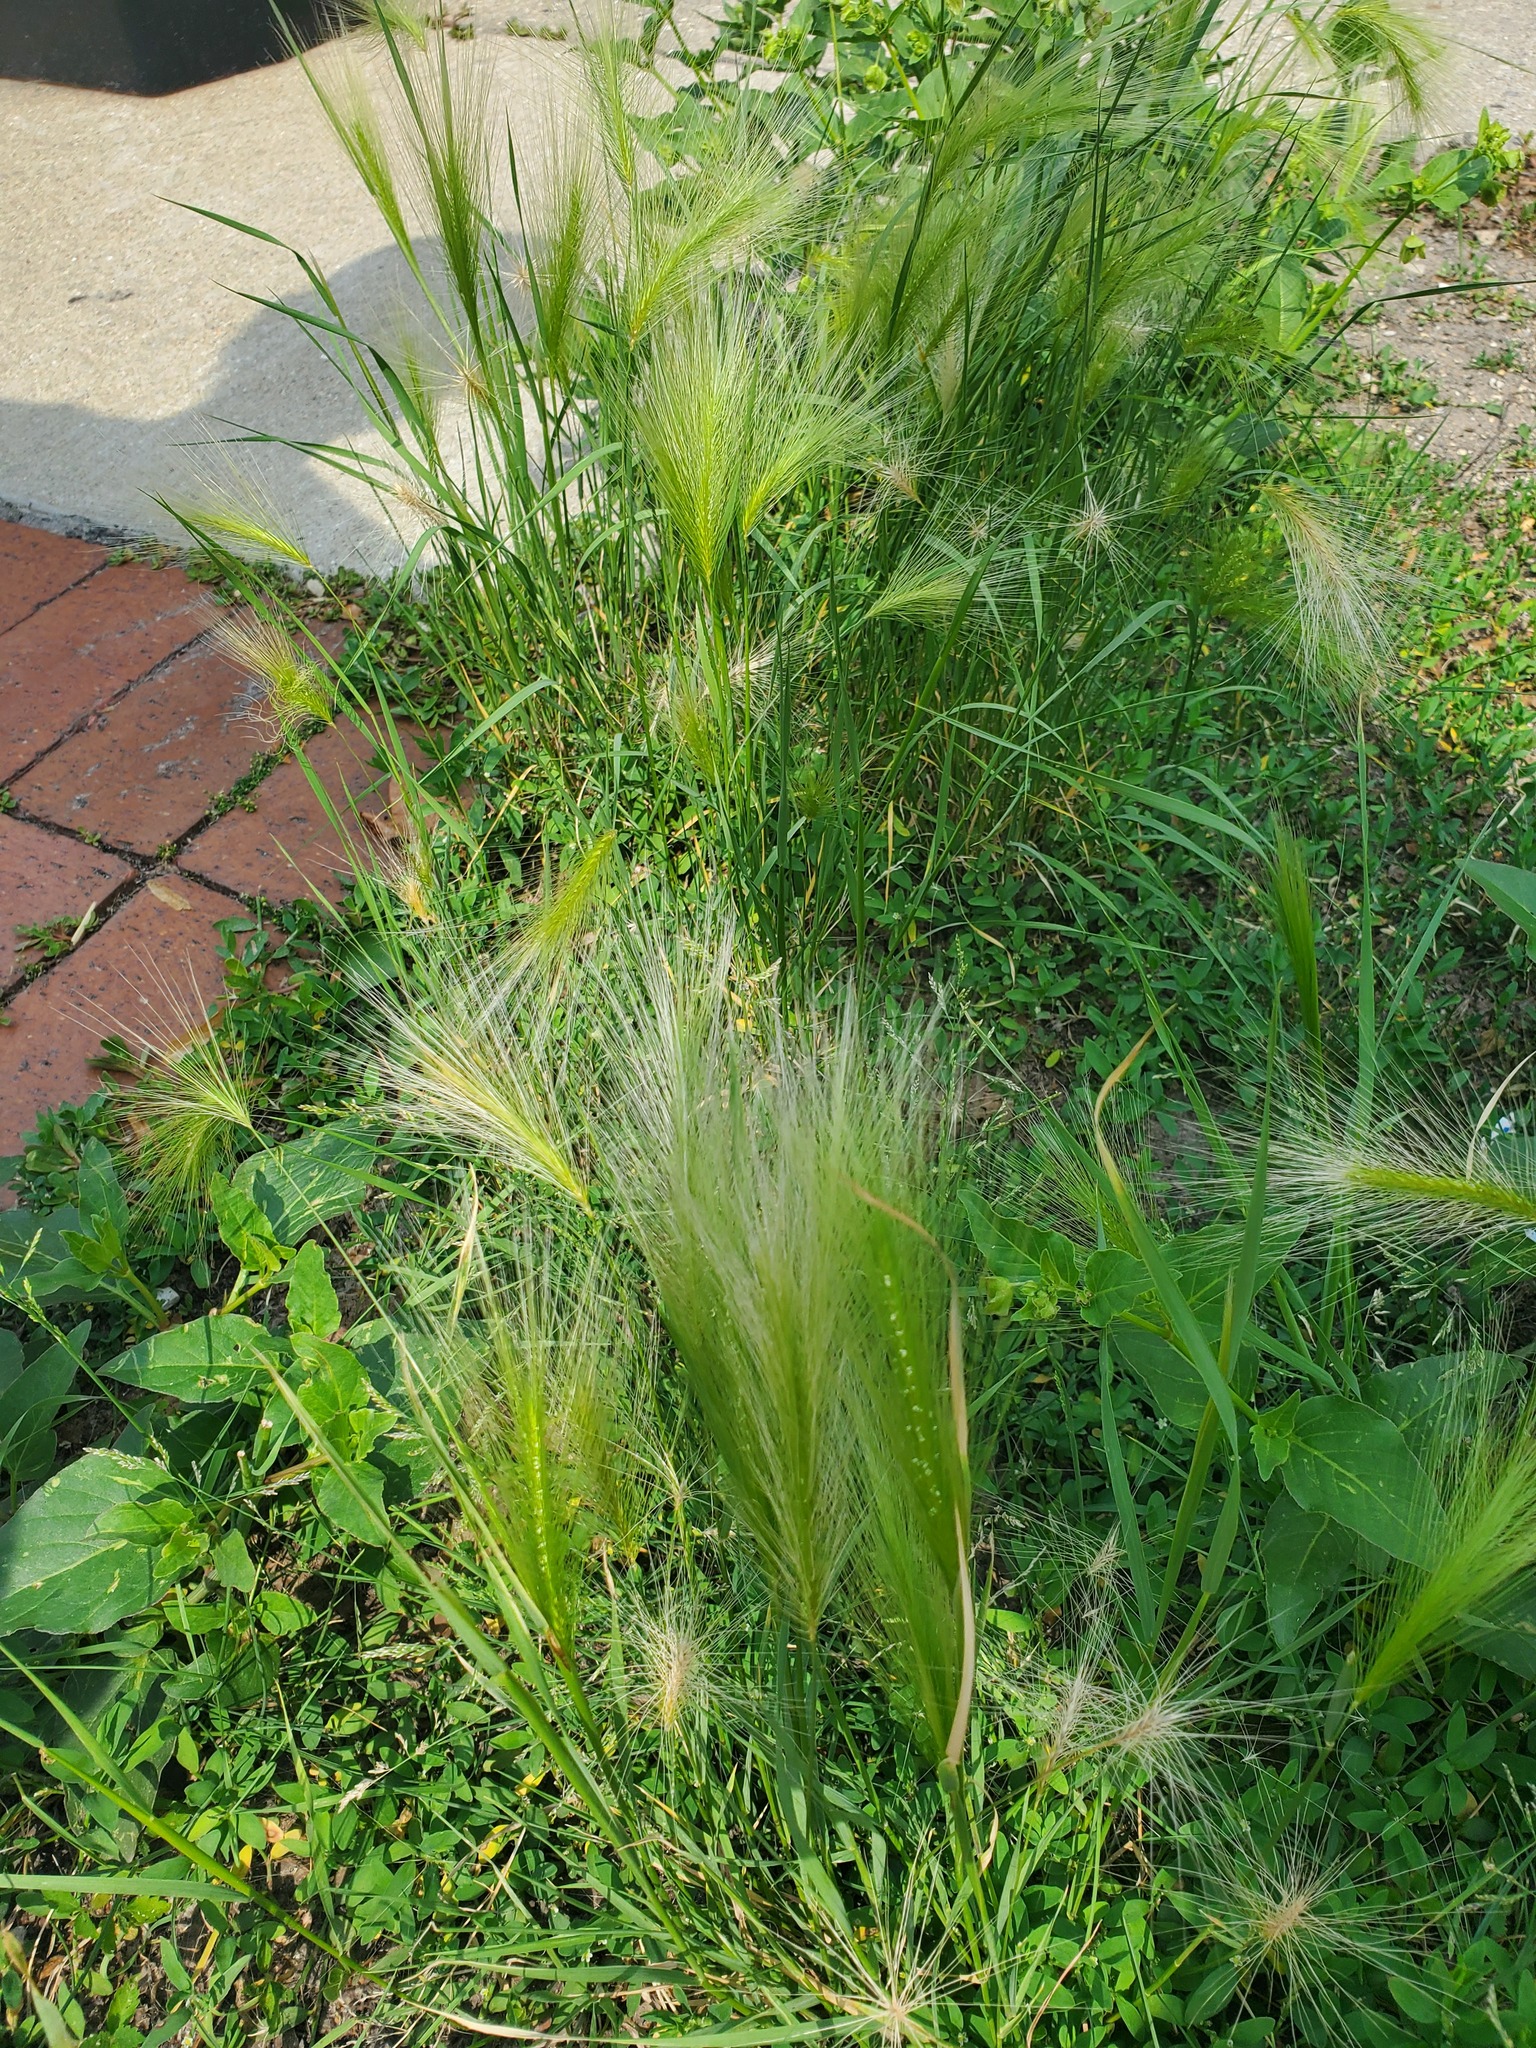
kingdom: Plantae
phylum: Tracheophyta
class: Liliopsida
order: Poales
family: Poaceae
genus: Hordeum
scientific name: Hordeum jubatum
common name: Foxtail barley
